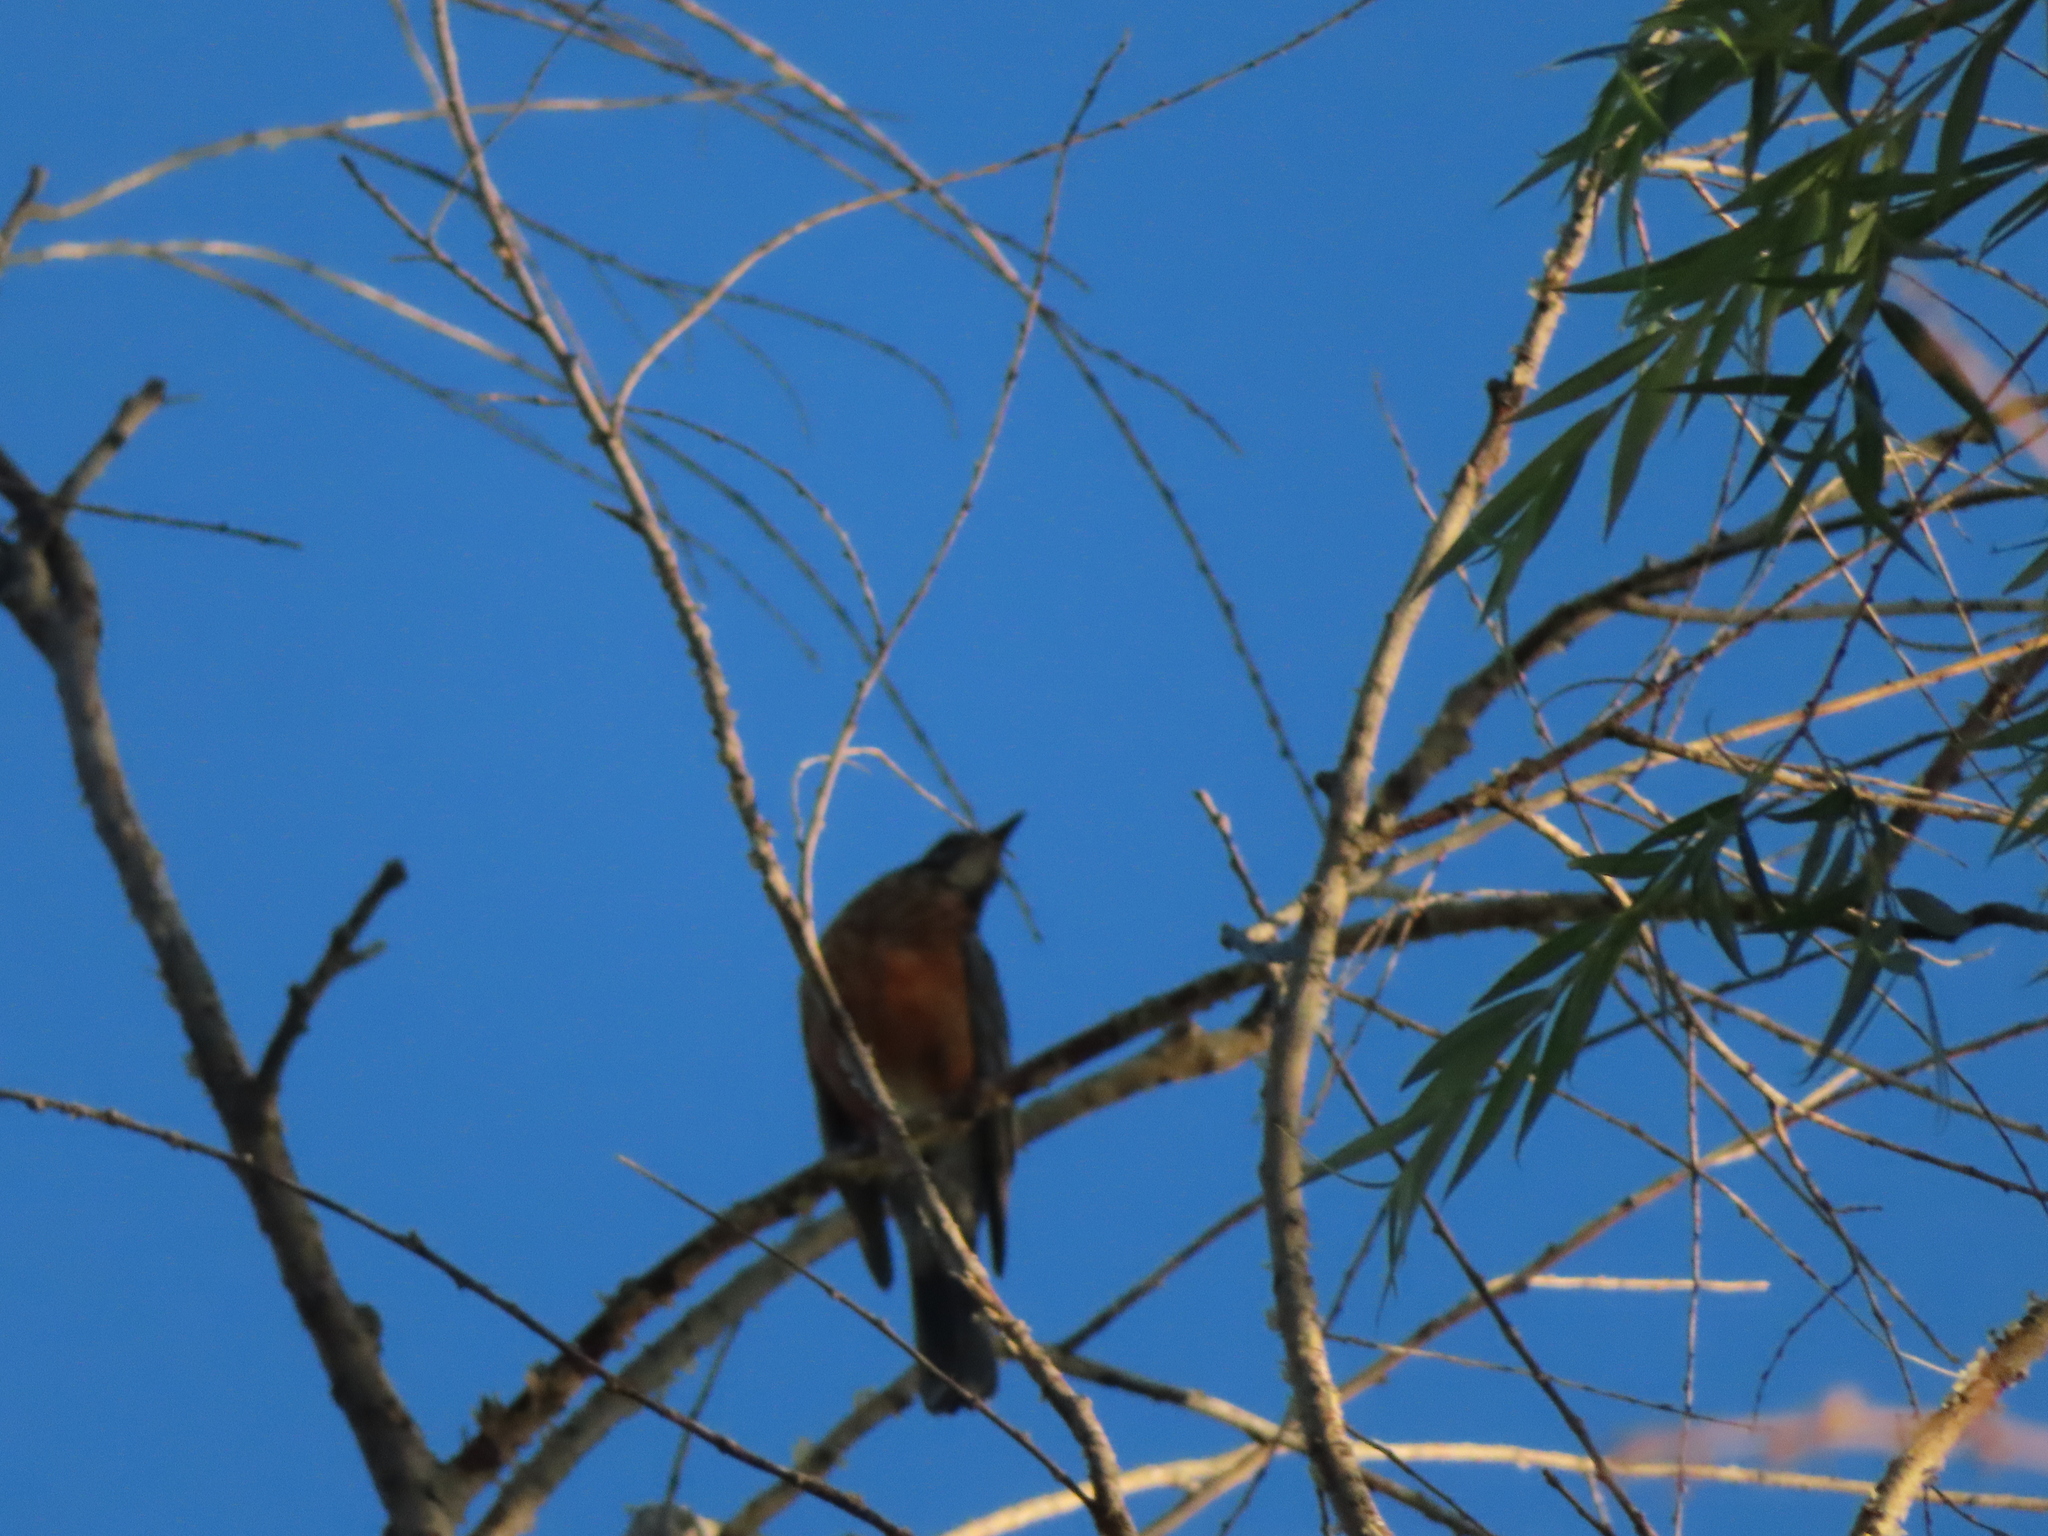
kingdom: Animalia
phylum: Chordata
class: Aves
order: Passeriformes
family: Turdidae
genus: Turdus
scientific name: Turdus migratorius
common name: American robin
